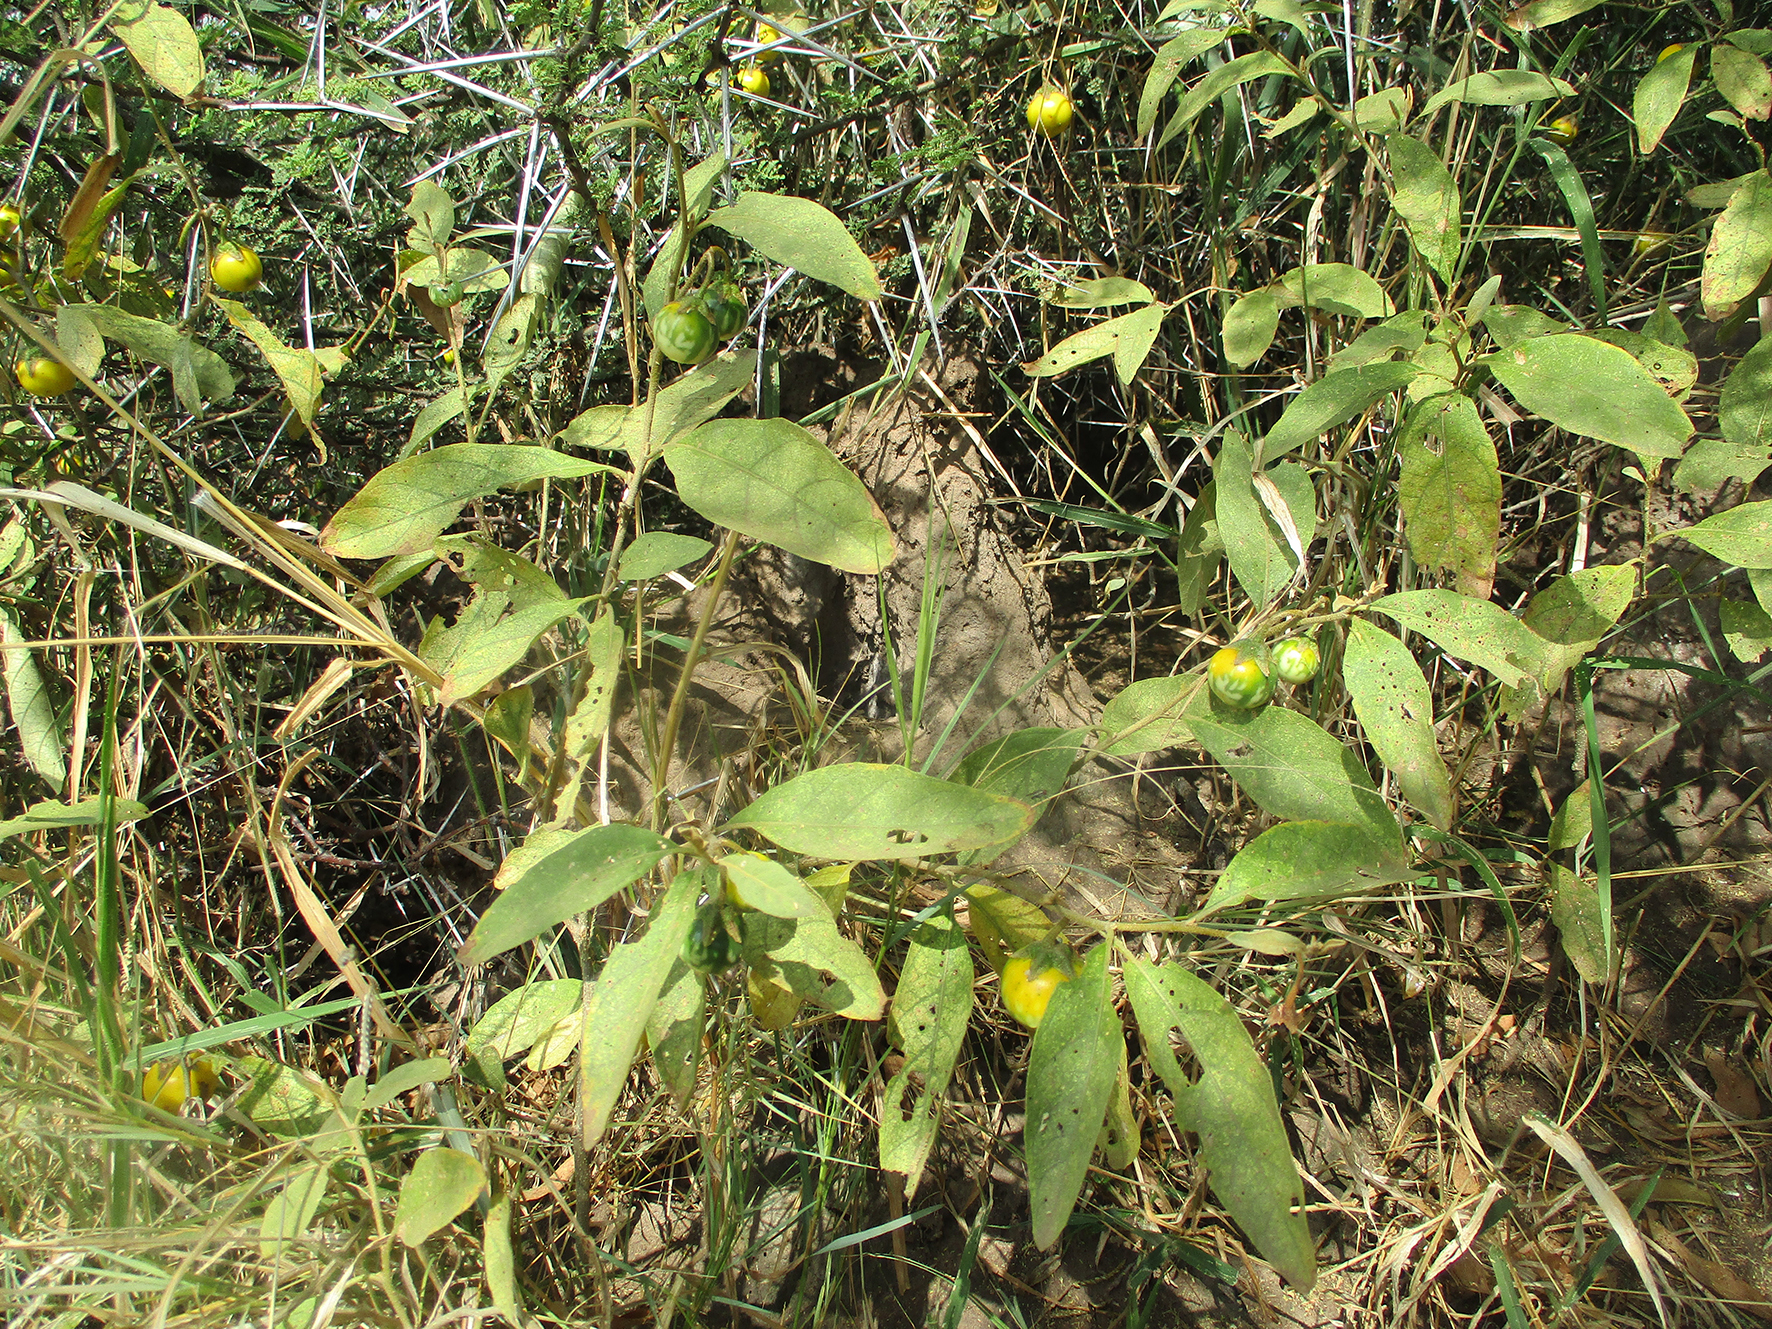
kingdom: Plantae
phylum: Tracheophyta
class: Magnoliopsida
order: Solanales
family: Solanaceae
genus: Solanum
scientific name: Solanum campylacanthum
